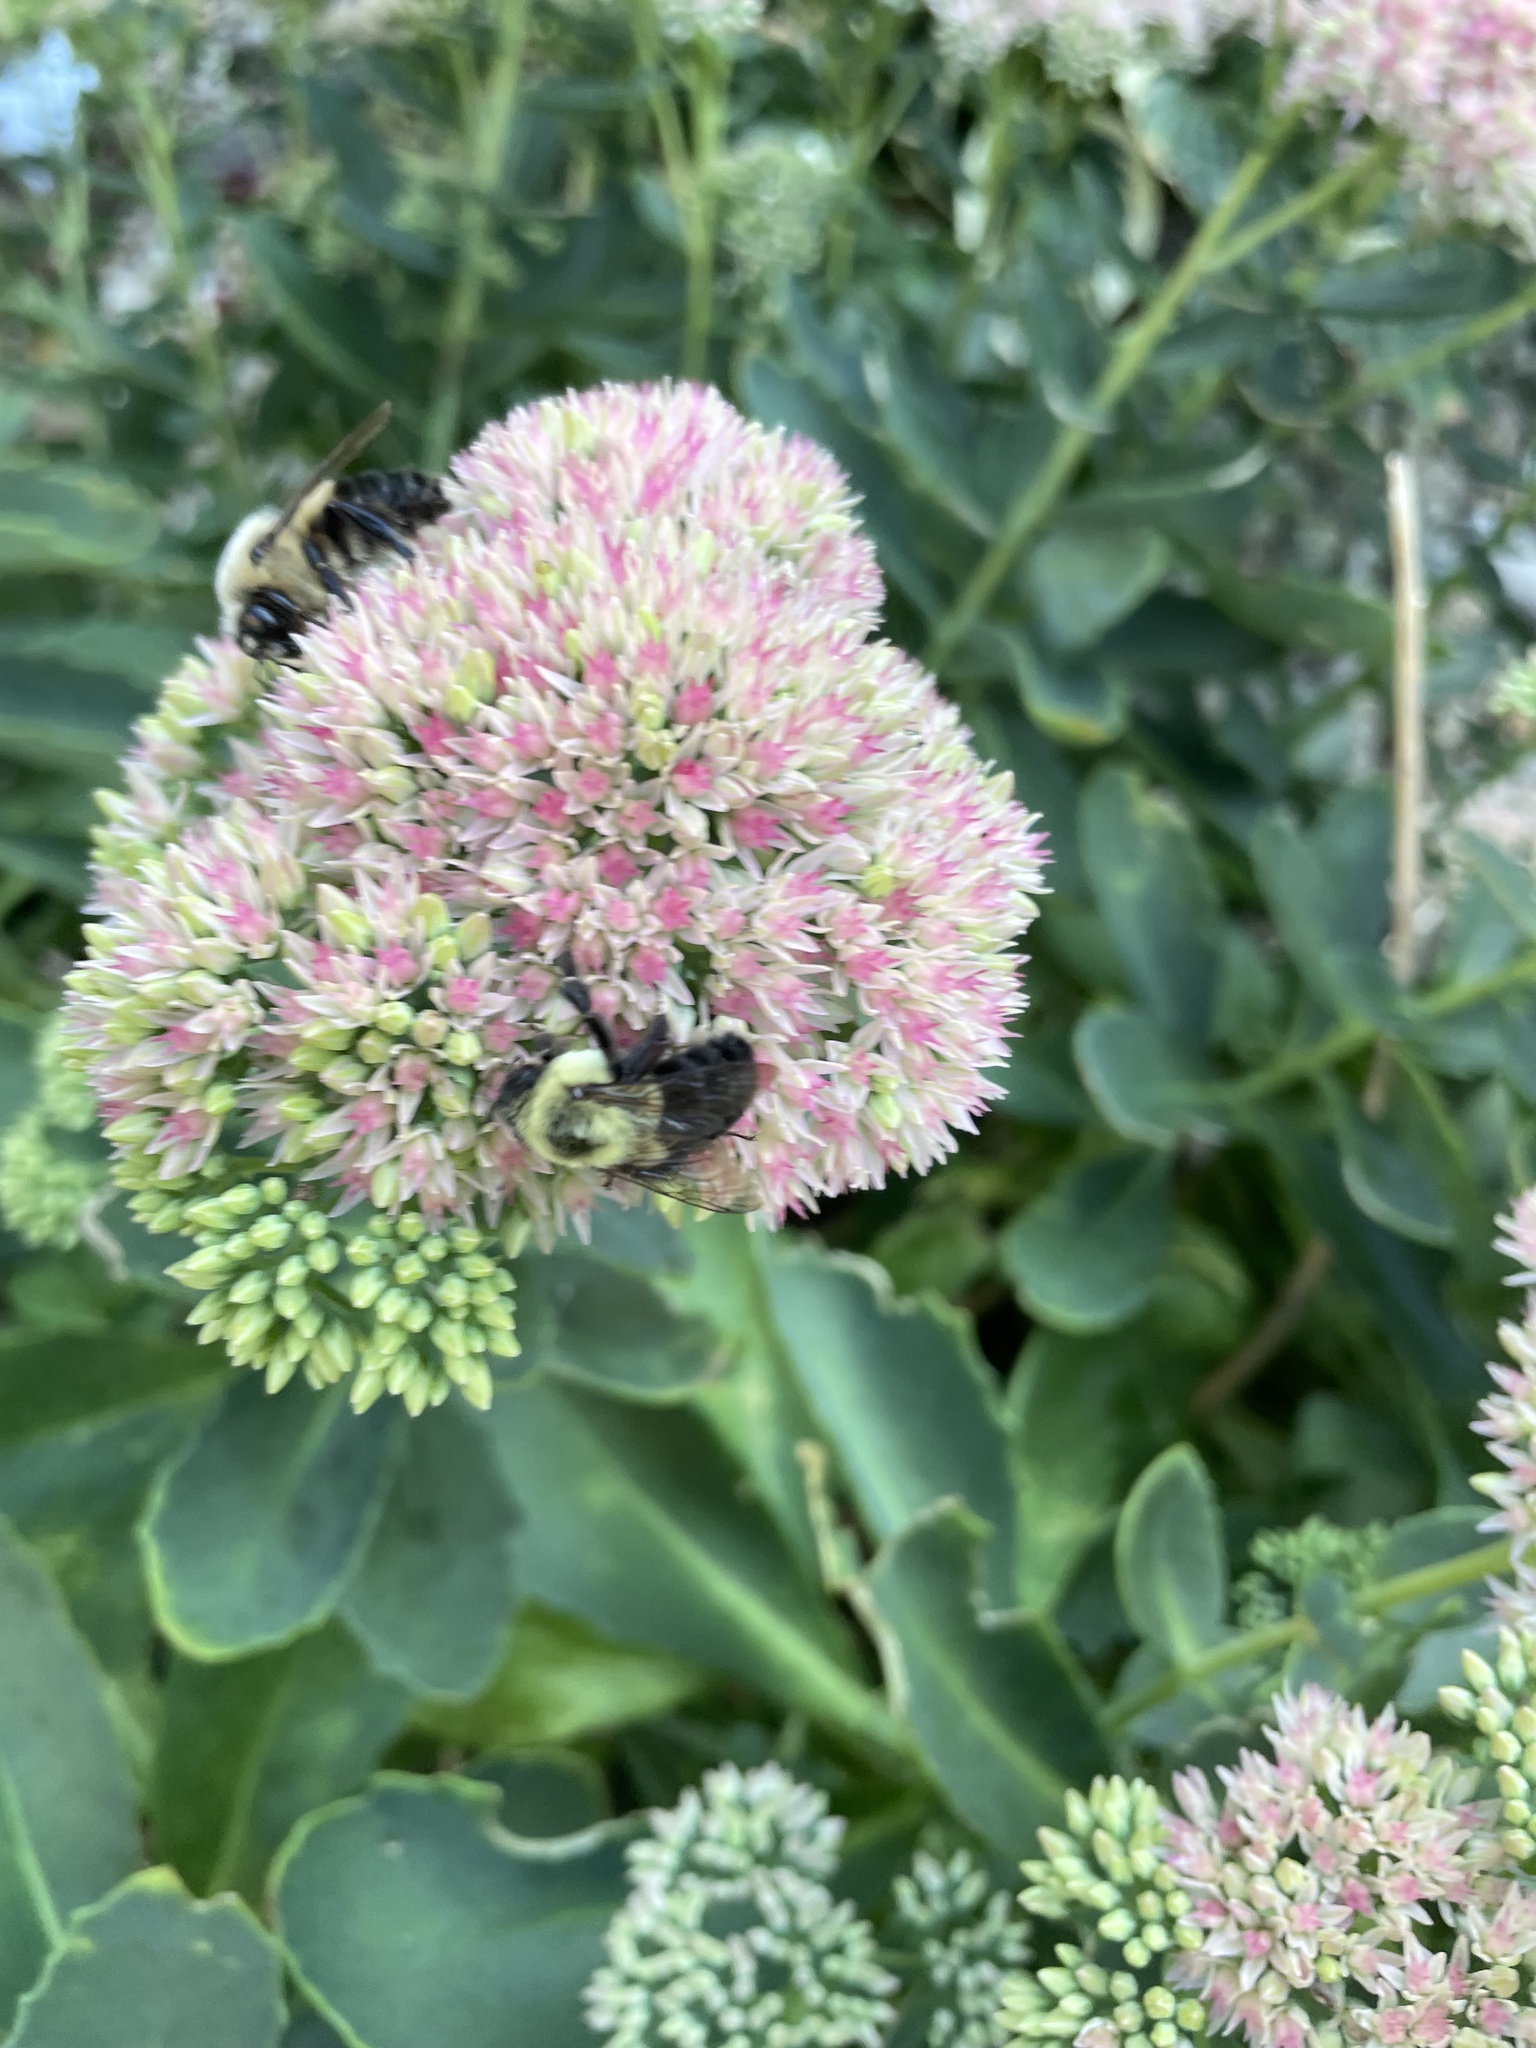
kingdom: Animalia
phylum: Arthropoda
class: Insecta
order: Hymenoptera
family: Apidae
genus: Bombus
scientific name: Bombus impatiens
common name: Common eastern bumble bee
